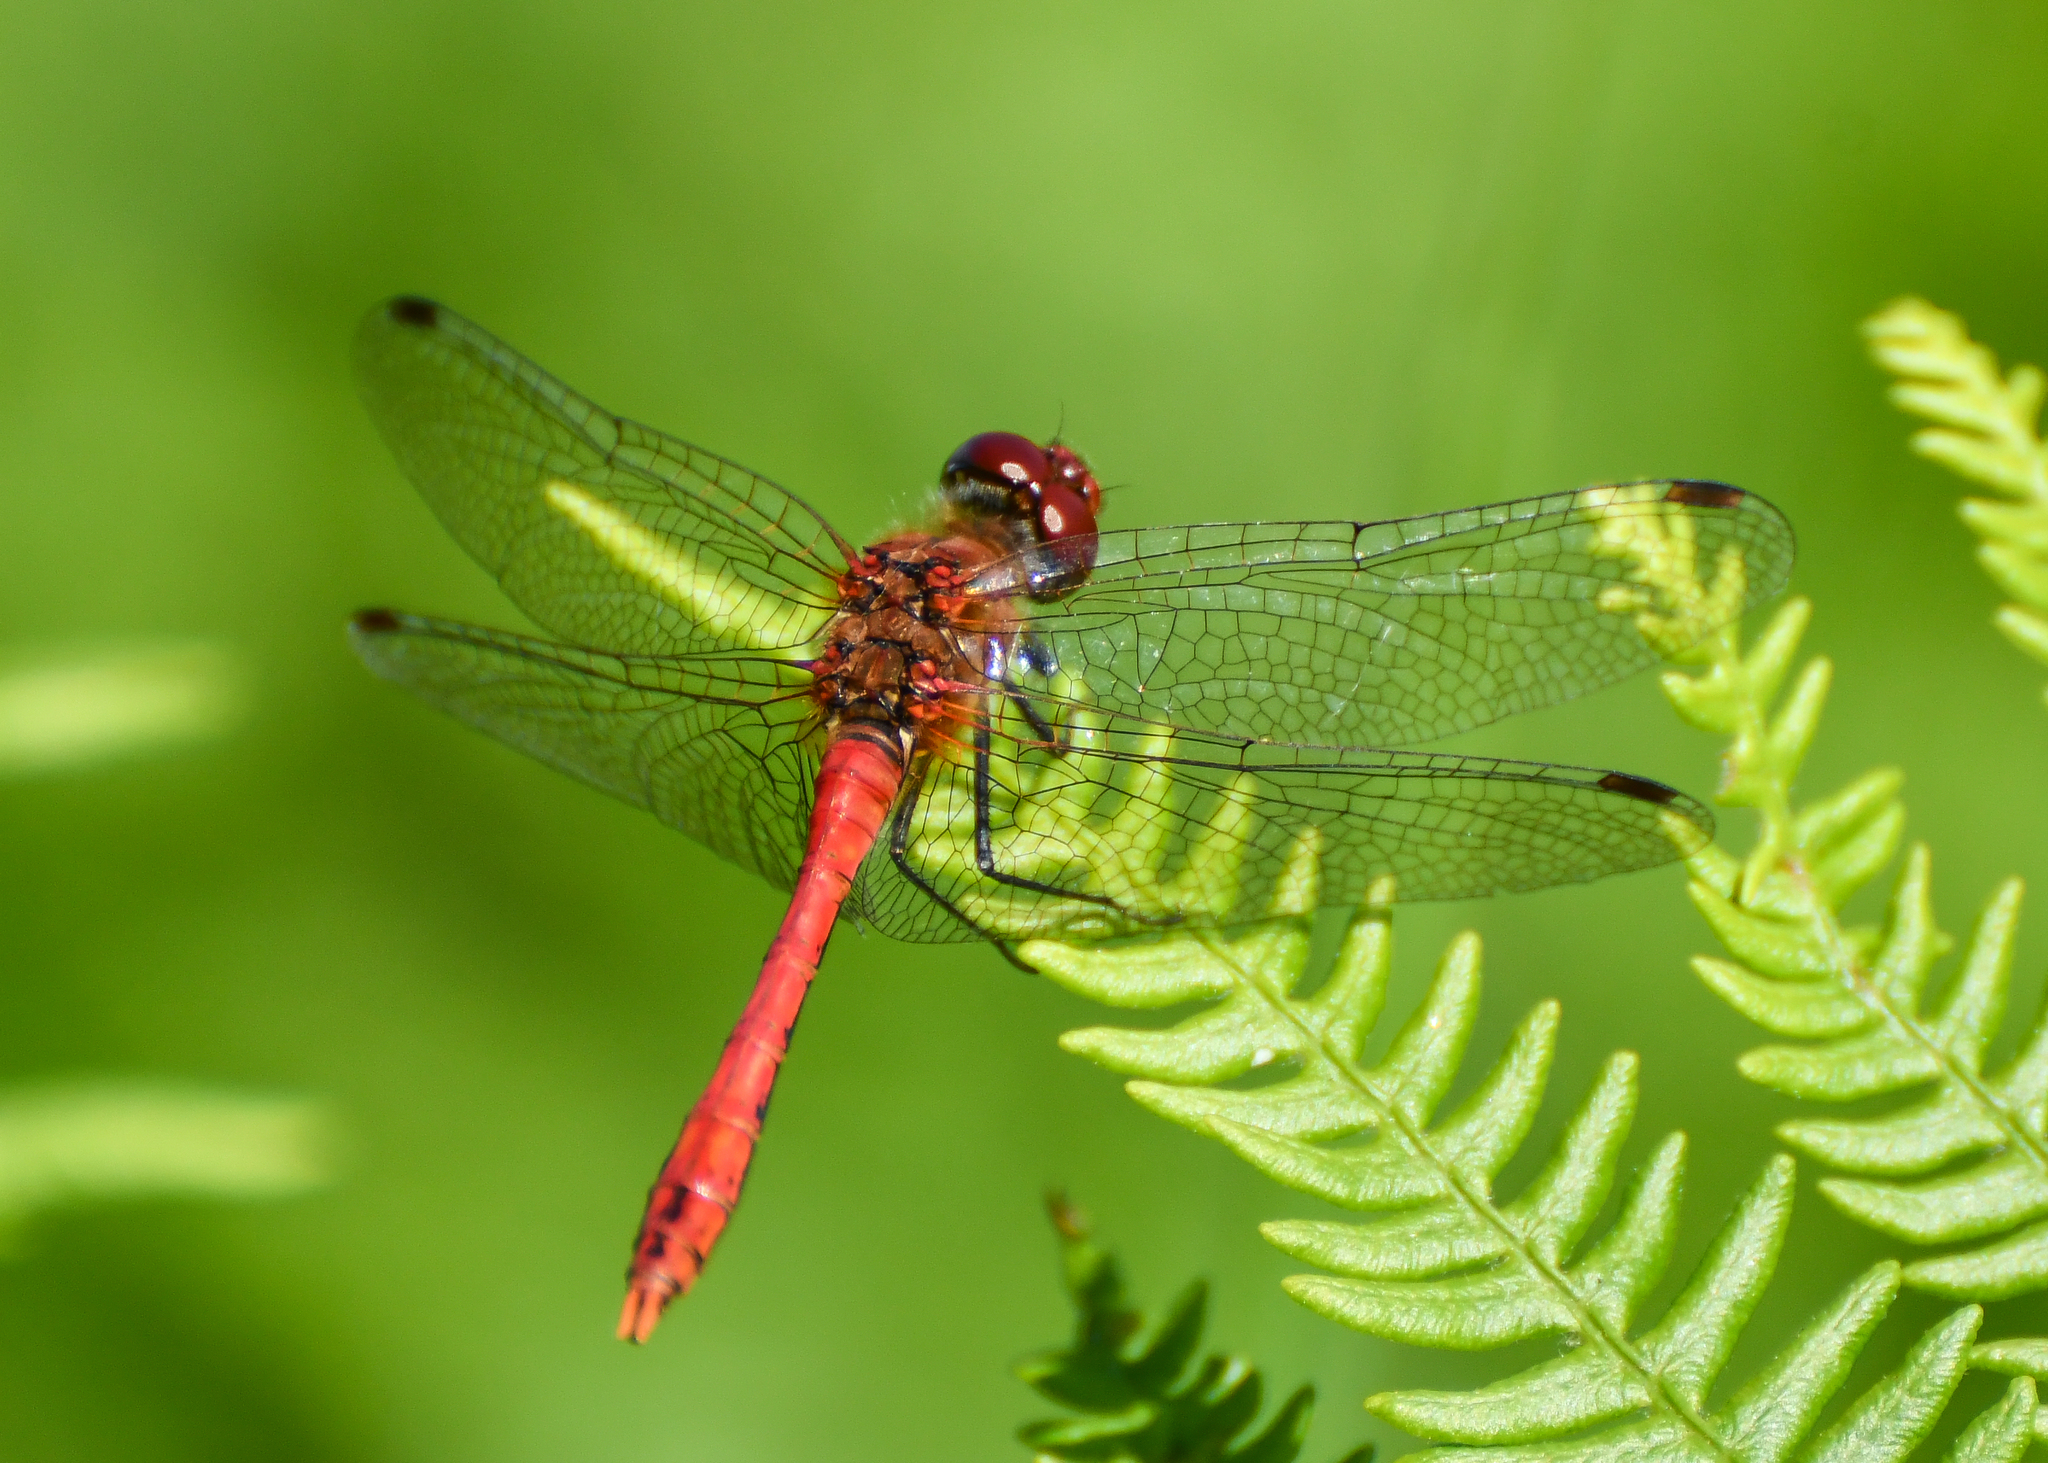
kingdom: Animalia
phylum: Arthropoda
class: Insecta
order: Odonata
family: Libellulidae
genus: Sympetrum
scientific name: Sympetrum sanguineum
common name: Ruddy darter
